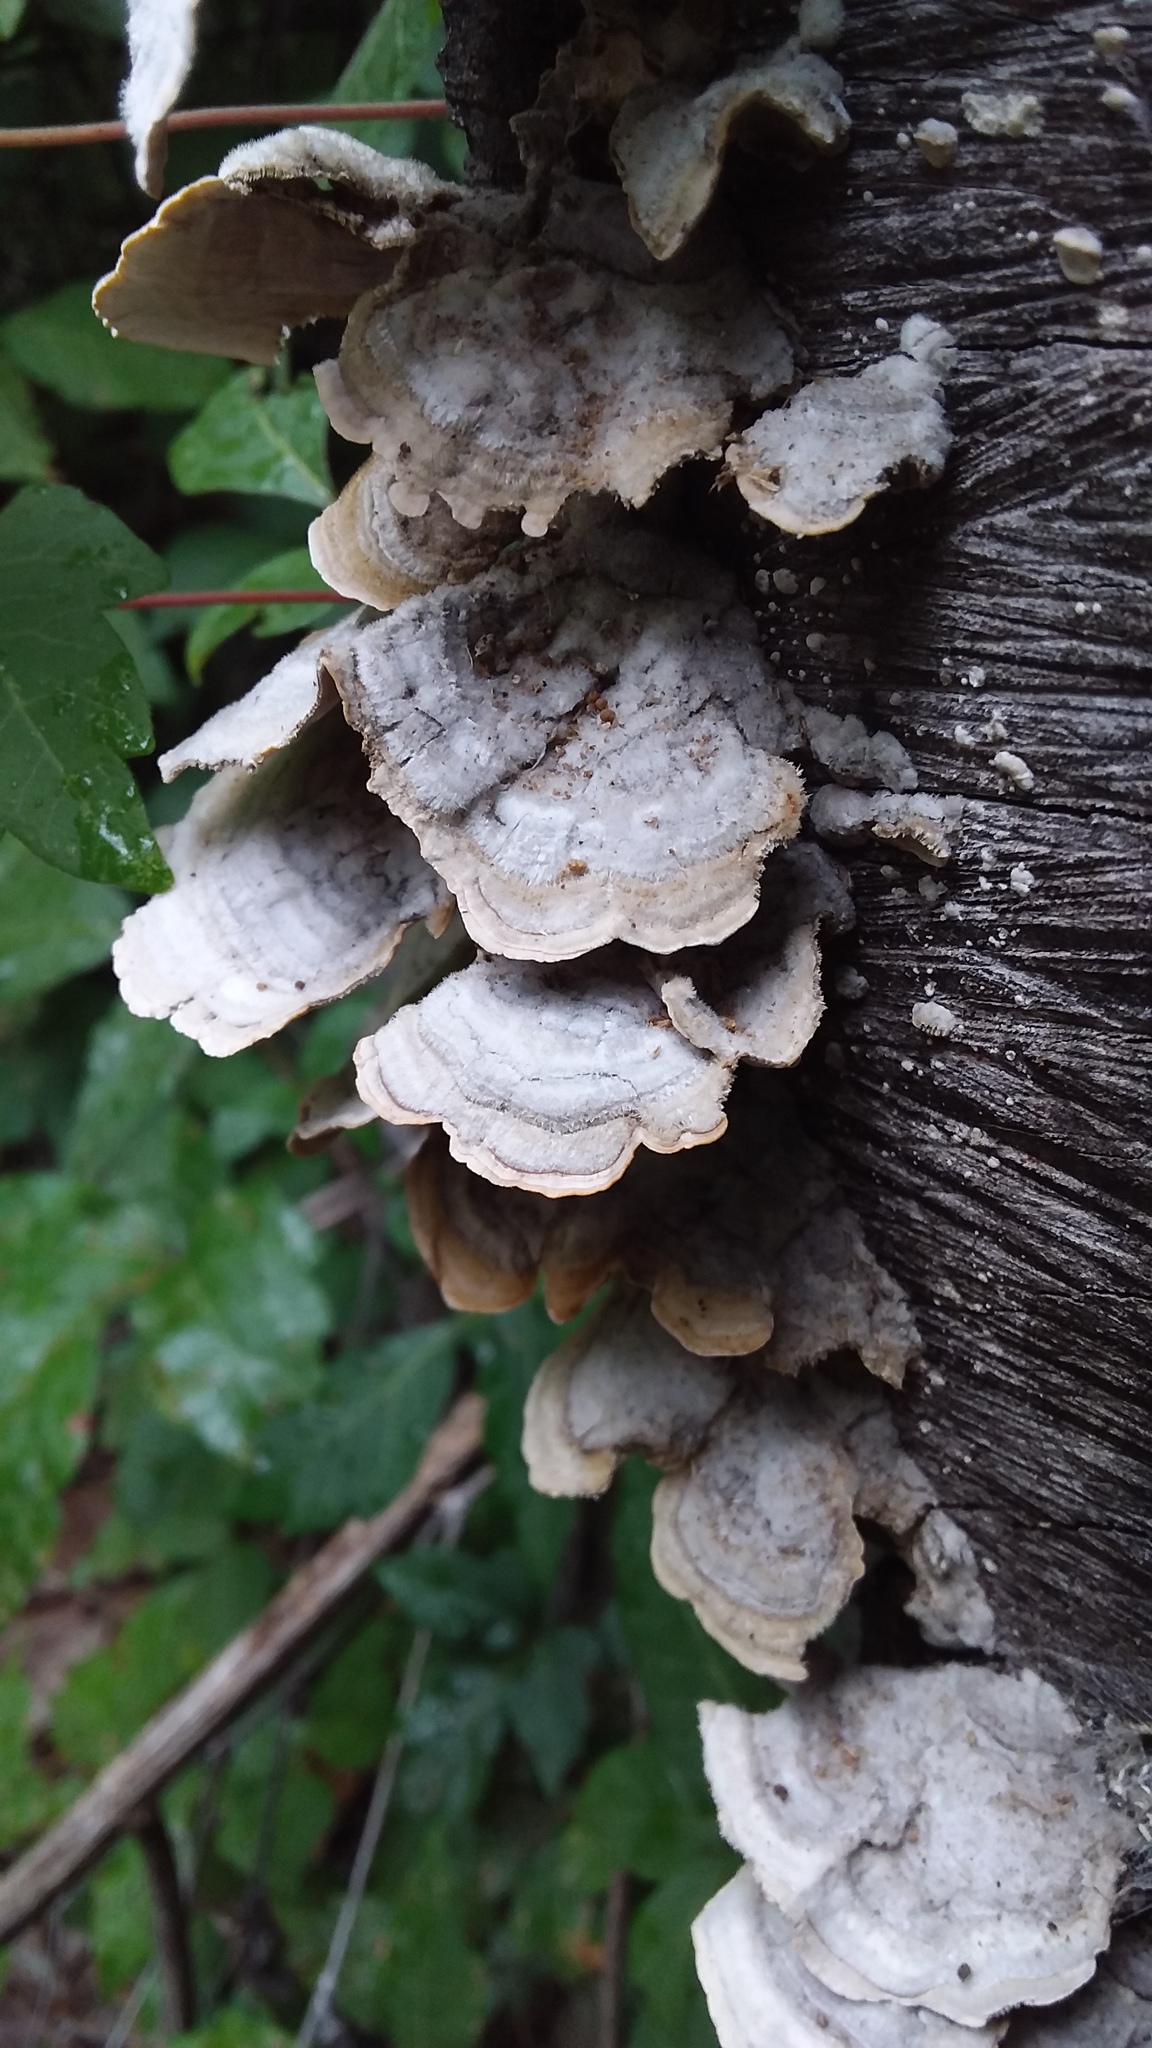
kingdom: Fungi
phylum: Basidiomycota
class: Agaricomycetes
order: Hymenochaetales
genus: Trichaptum
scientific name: Trichaptum fuscoviolaceum
